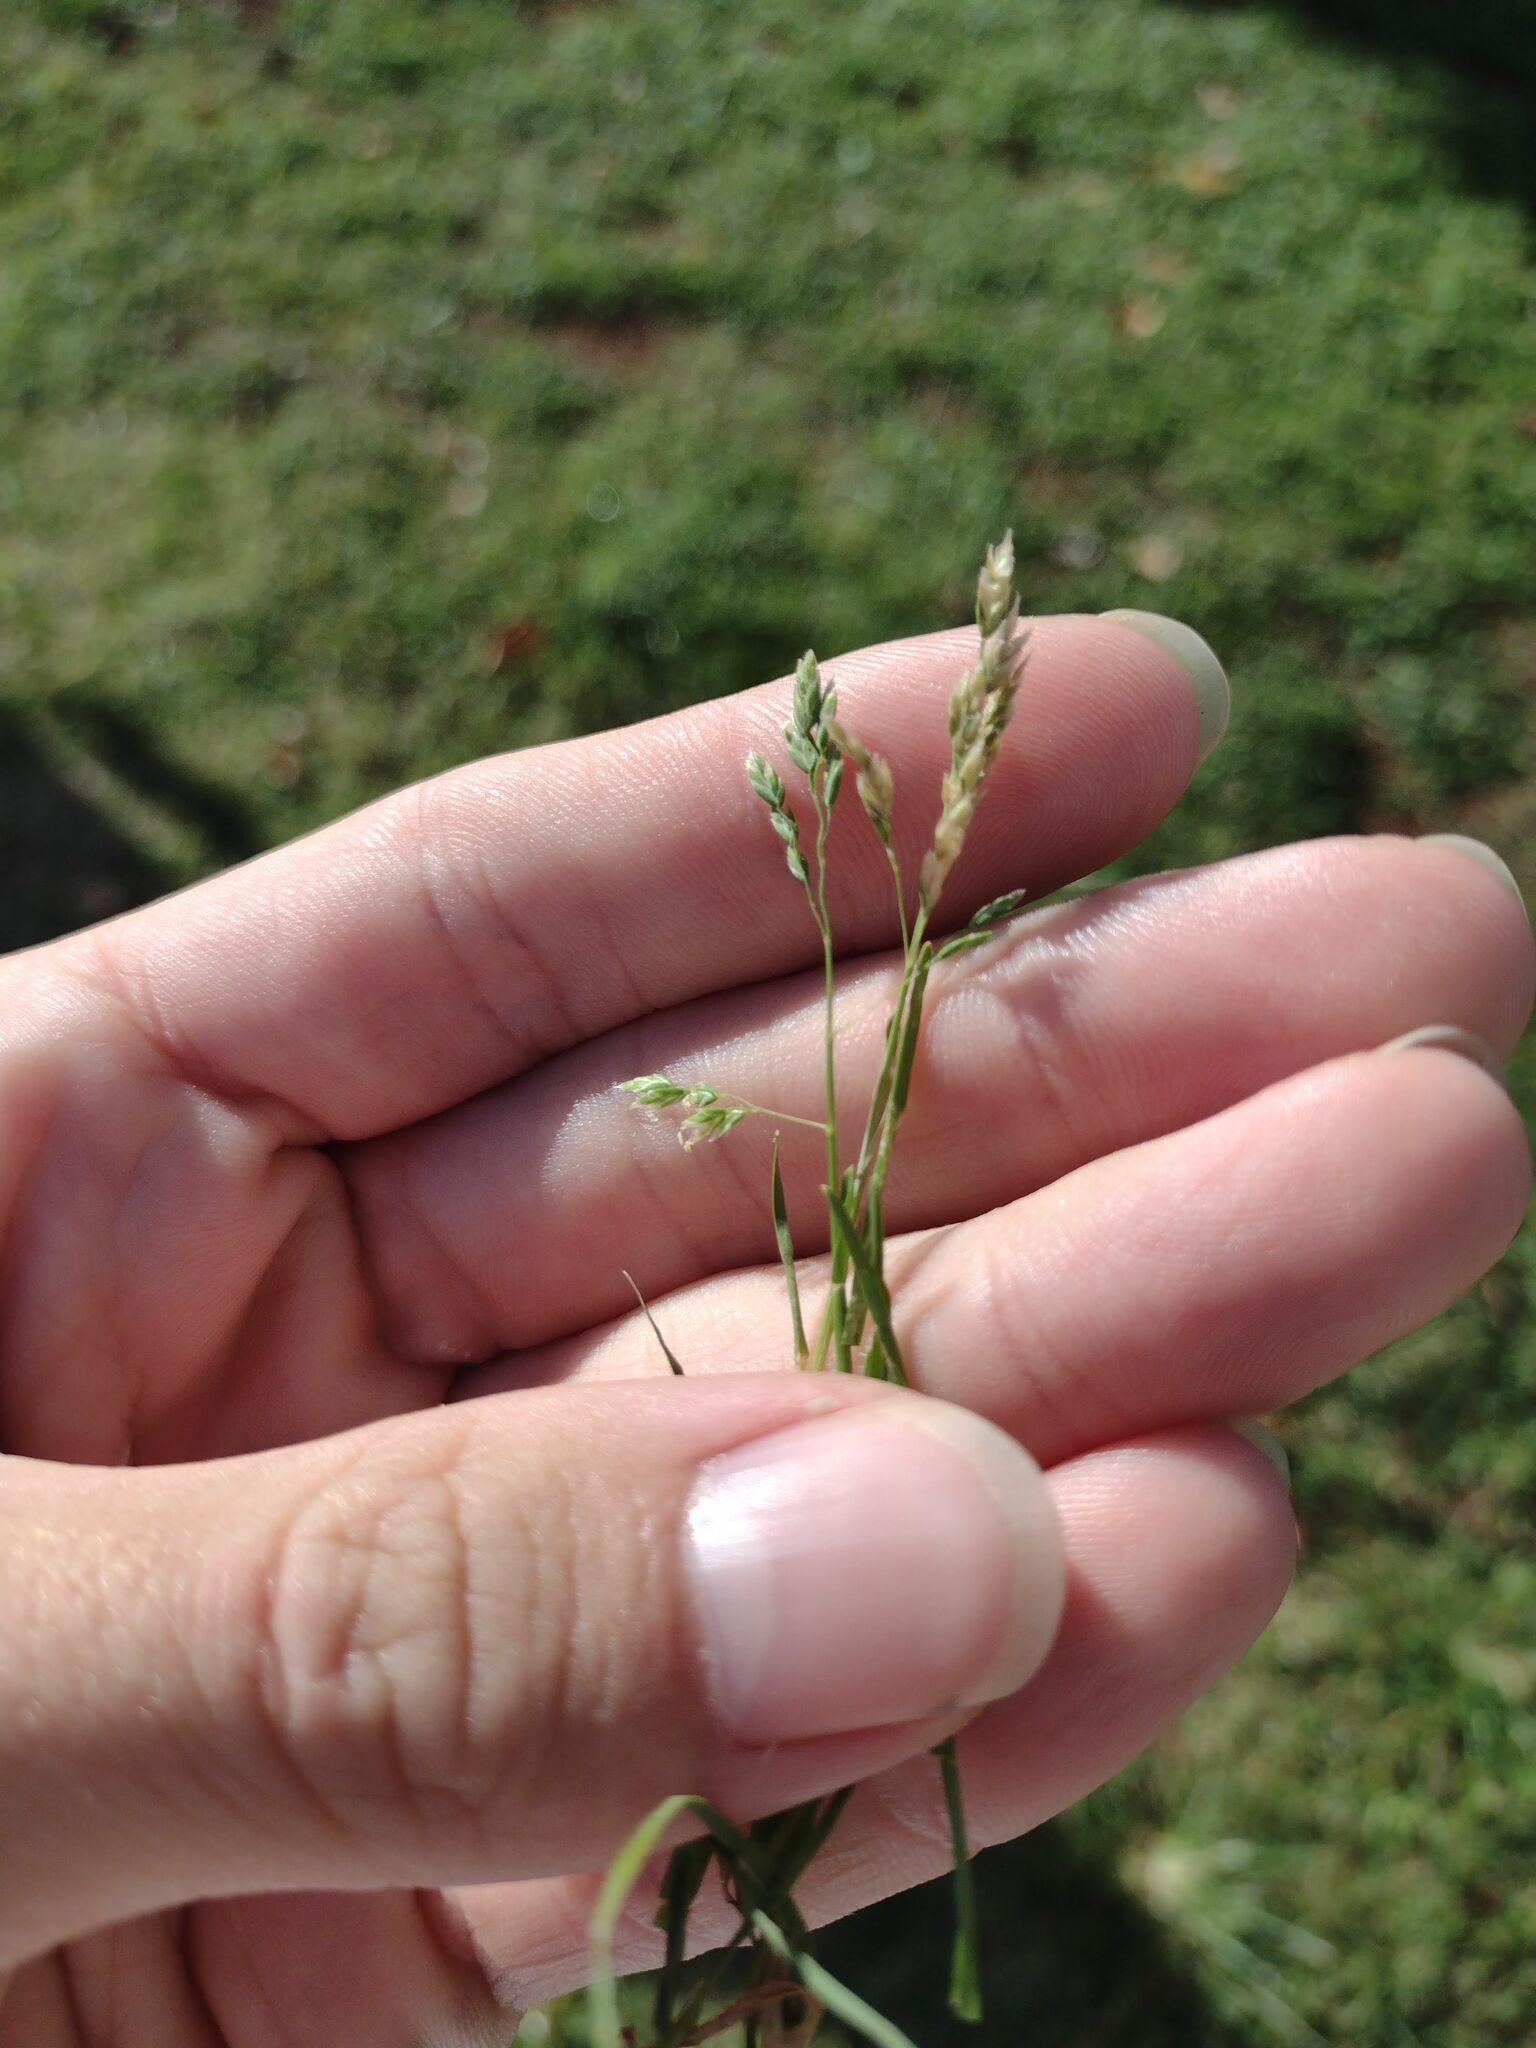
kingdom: Plantae
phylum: Tracheophyta
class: Liliopsida
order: Poales
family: Poaceae
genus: Poa
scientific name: Poa annua
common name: Annual bluegrass
